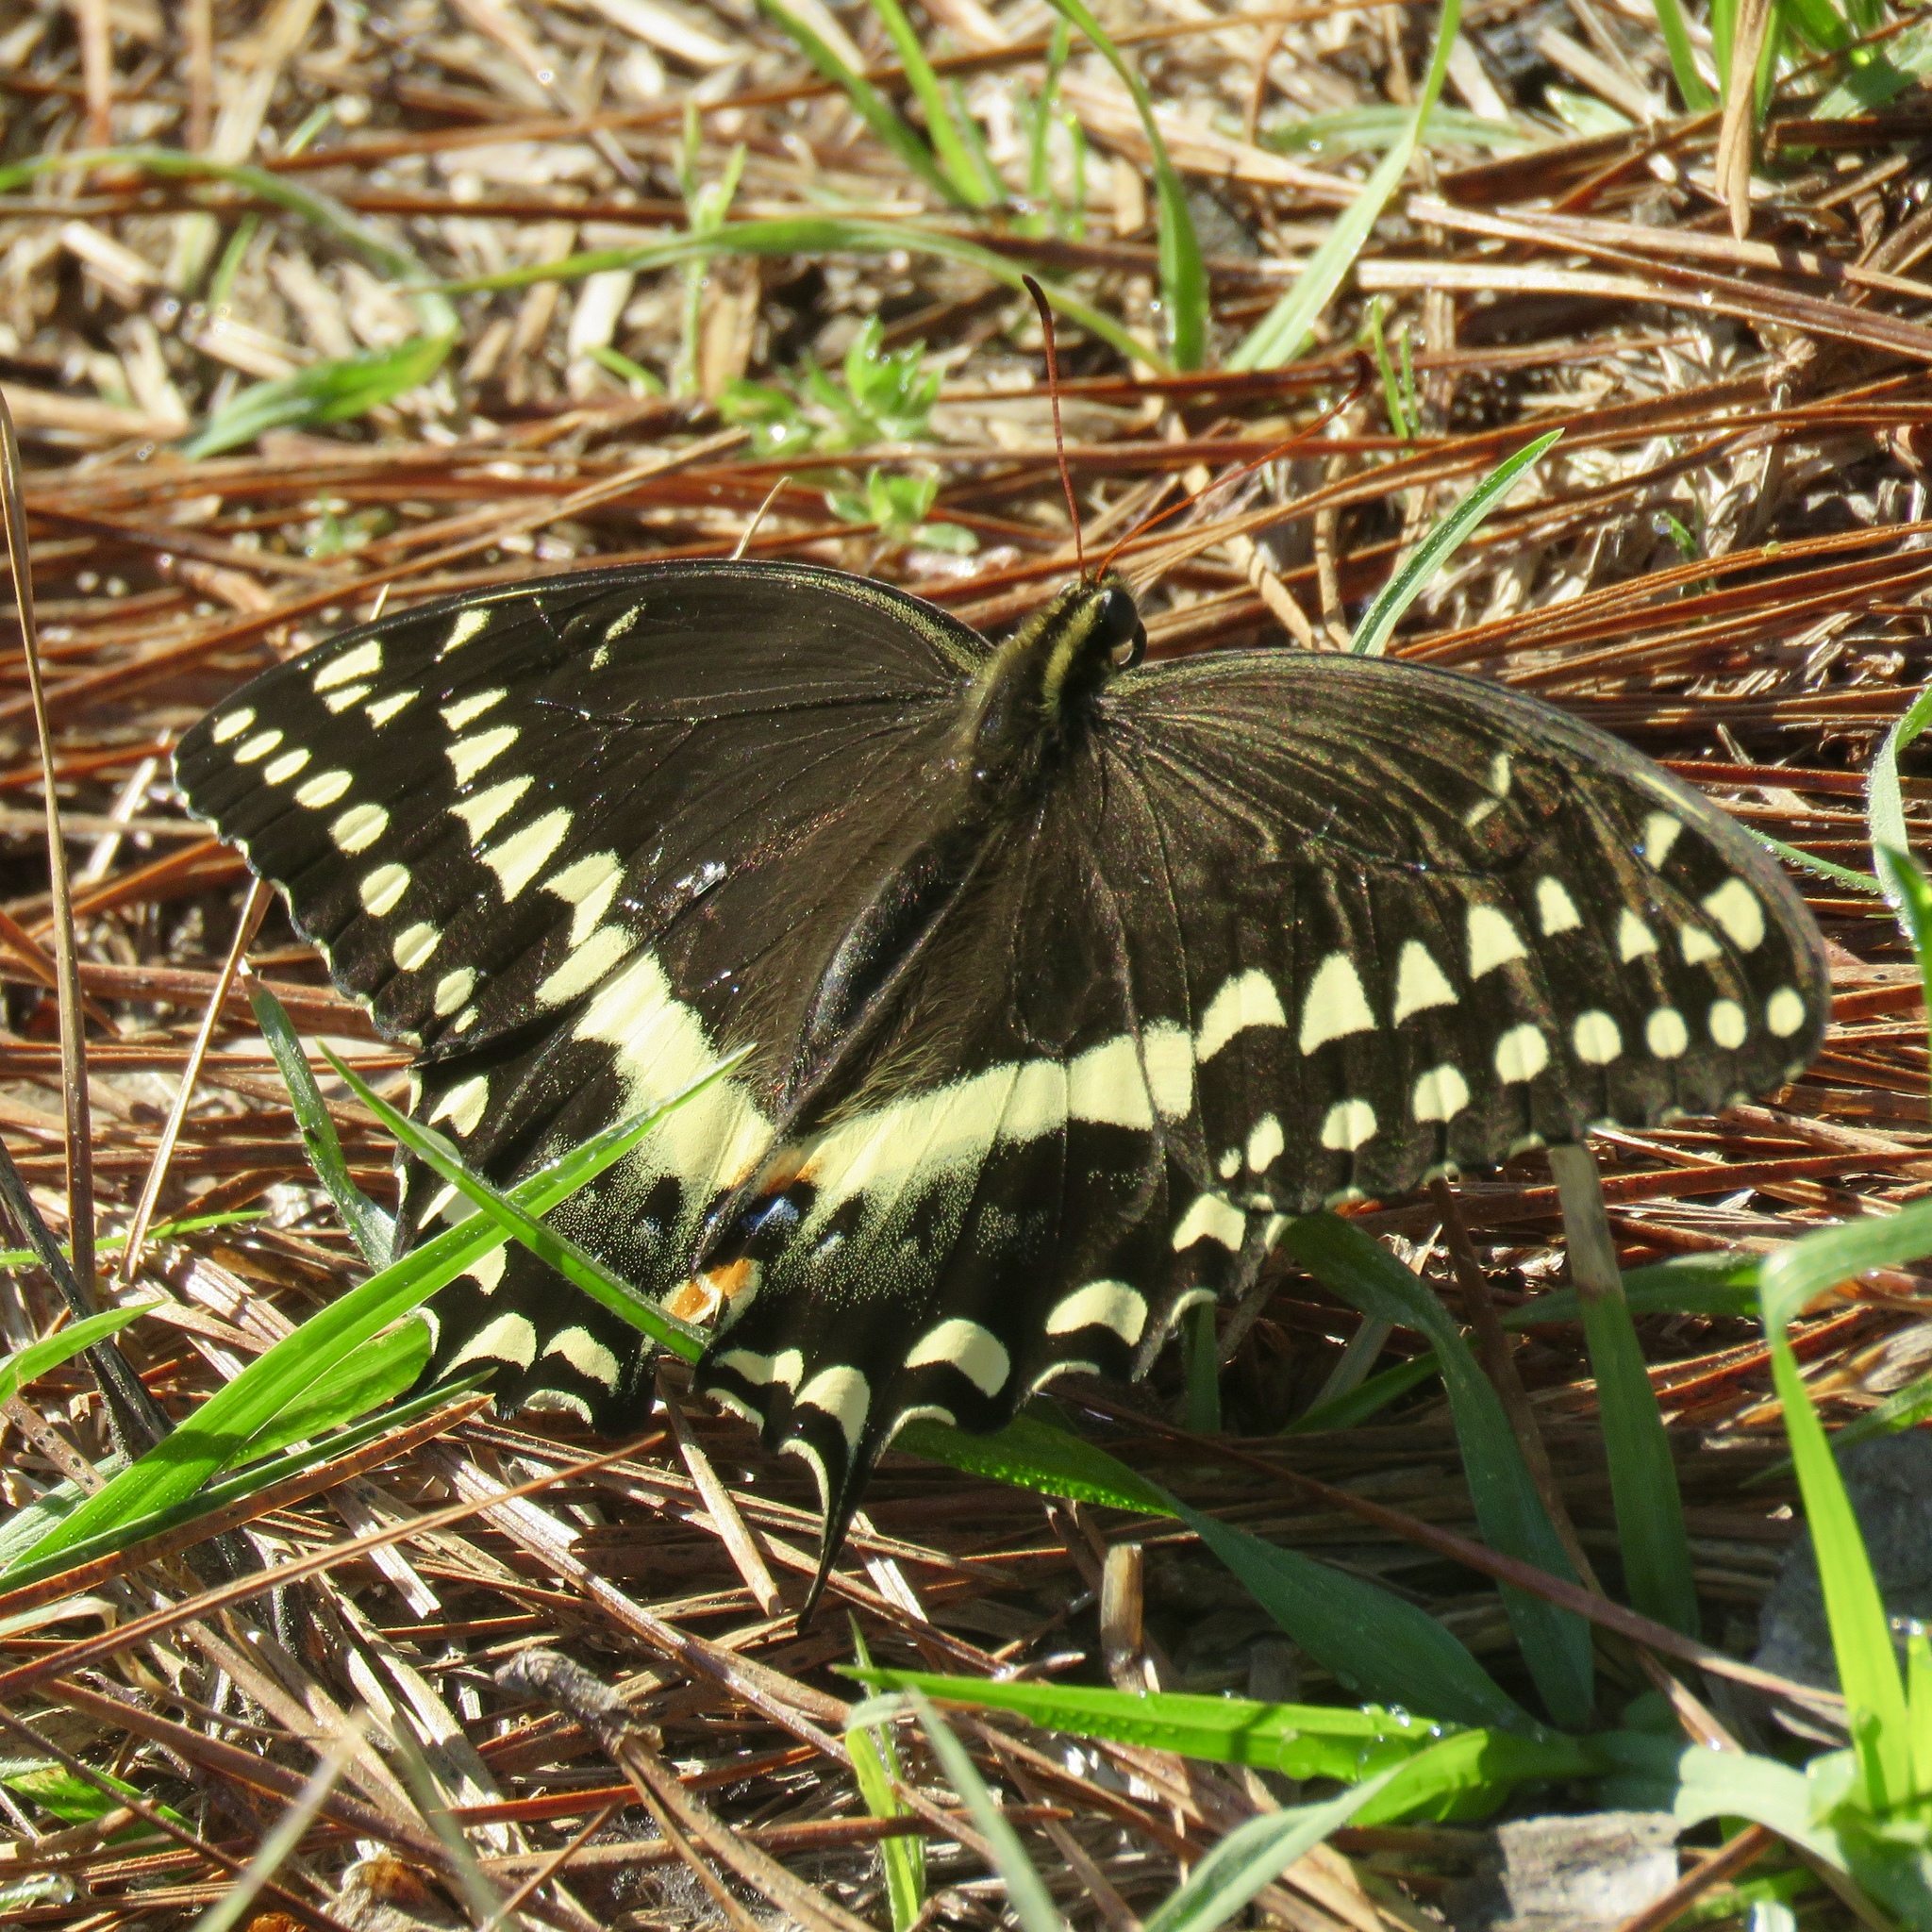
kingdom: Animalia
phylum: Arthropoda
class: Insecta
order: Lepidoptera
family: Papilionidae
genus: Papilio
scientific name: Papilio palamedes
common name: Palamedes swallowtail
